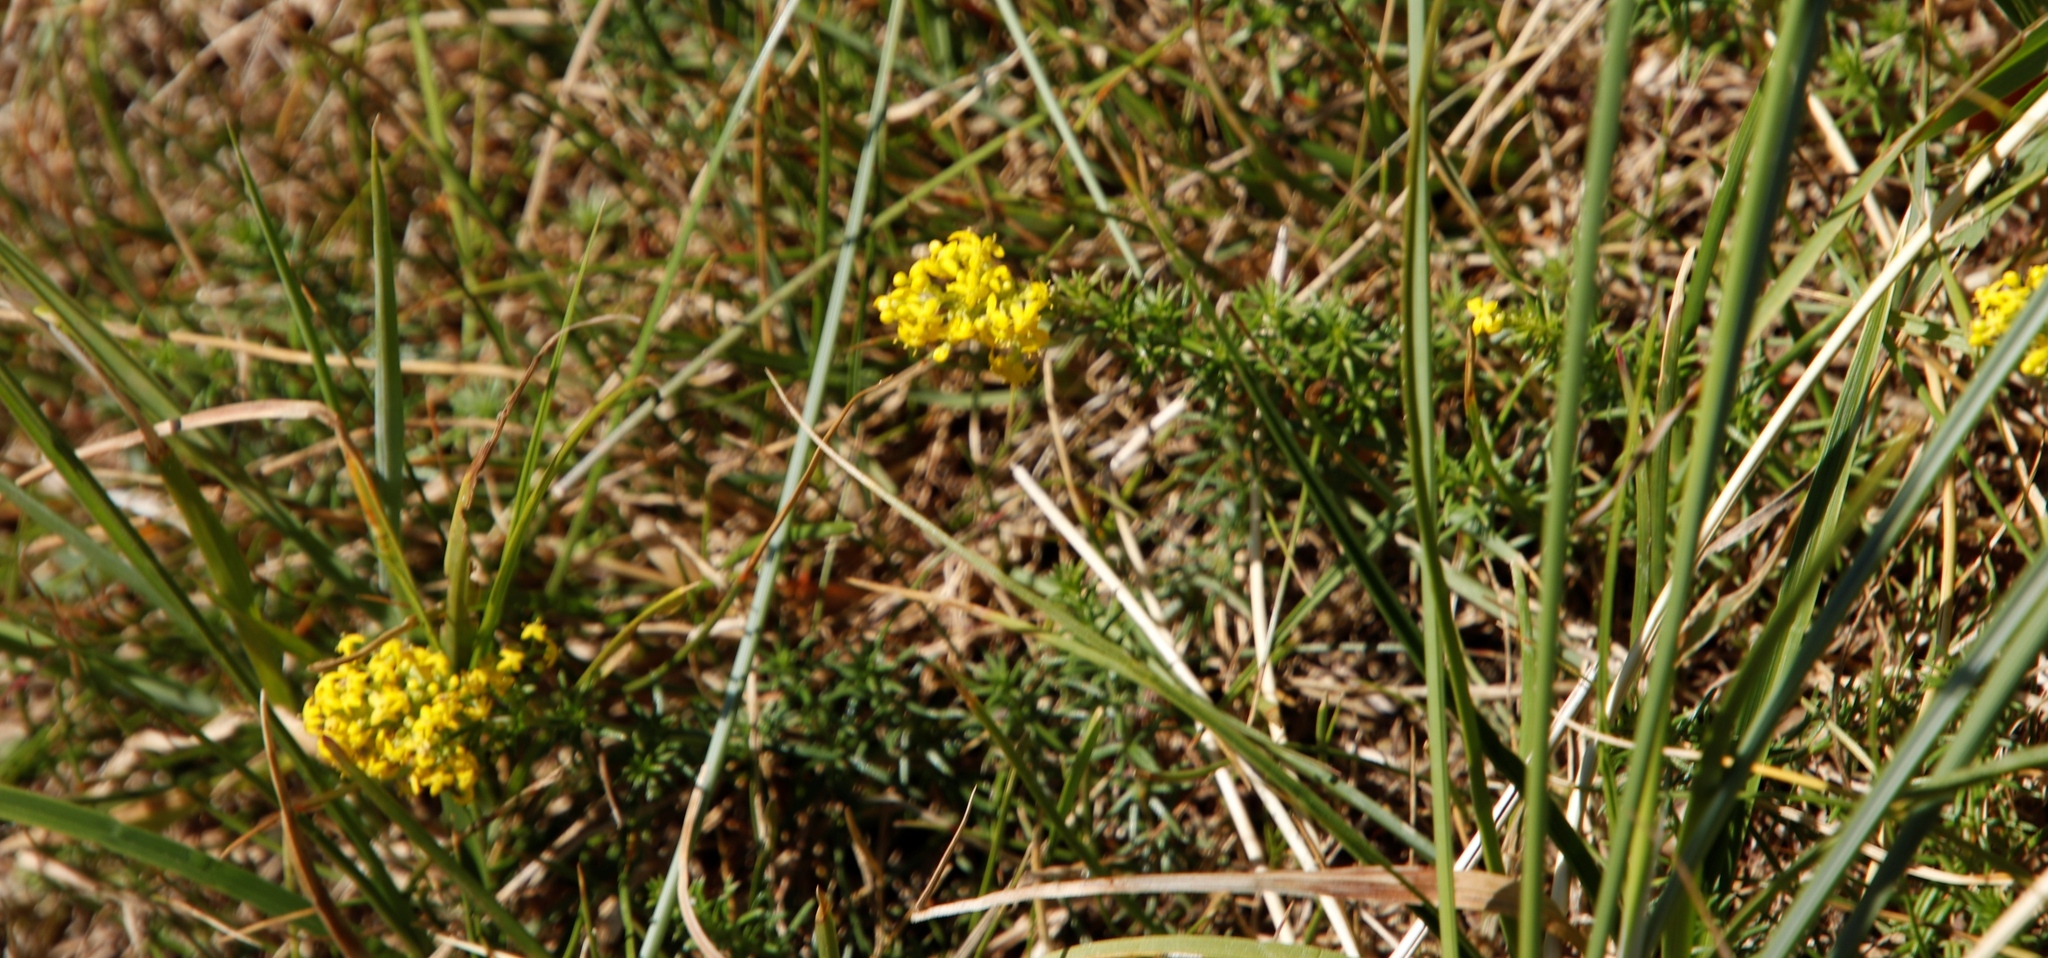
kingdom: Plantae
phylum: Tracheophyta
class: Magnoliopsida
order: Gentianales
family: Rubiaceae
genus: Galium
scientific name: Galium verum
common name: Lady's bedstraw
